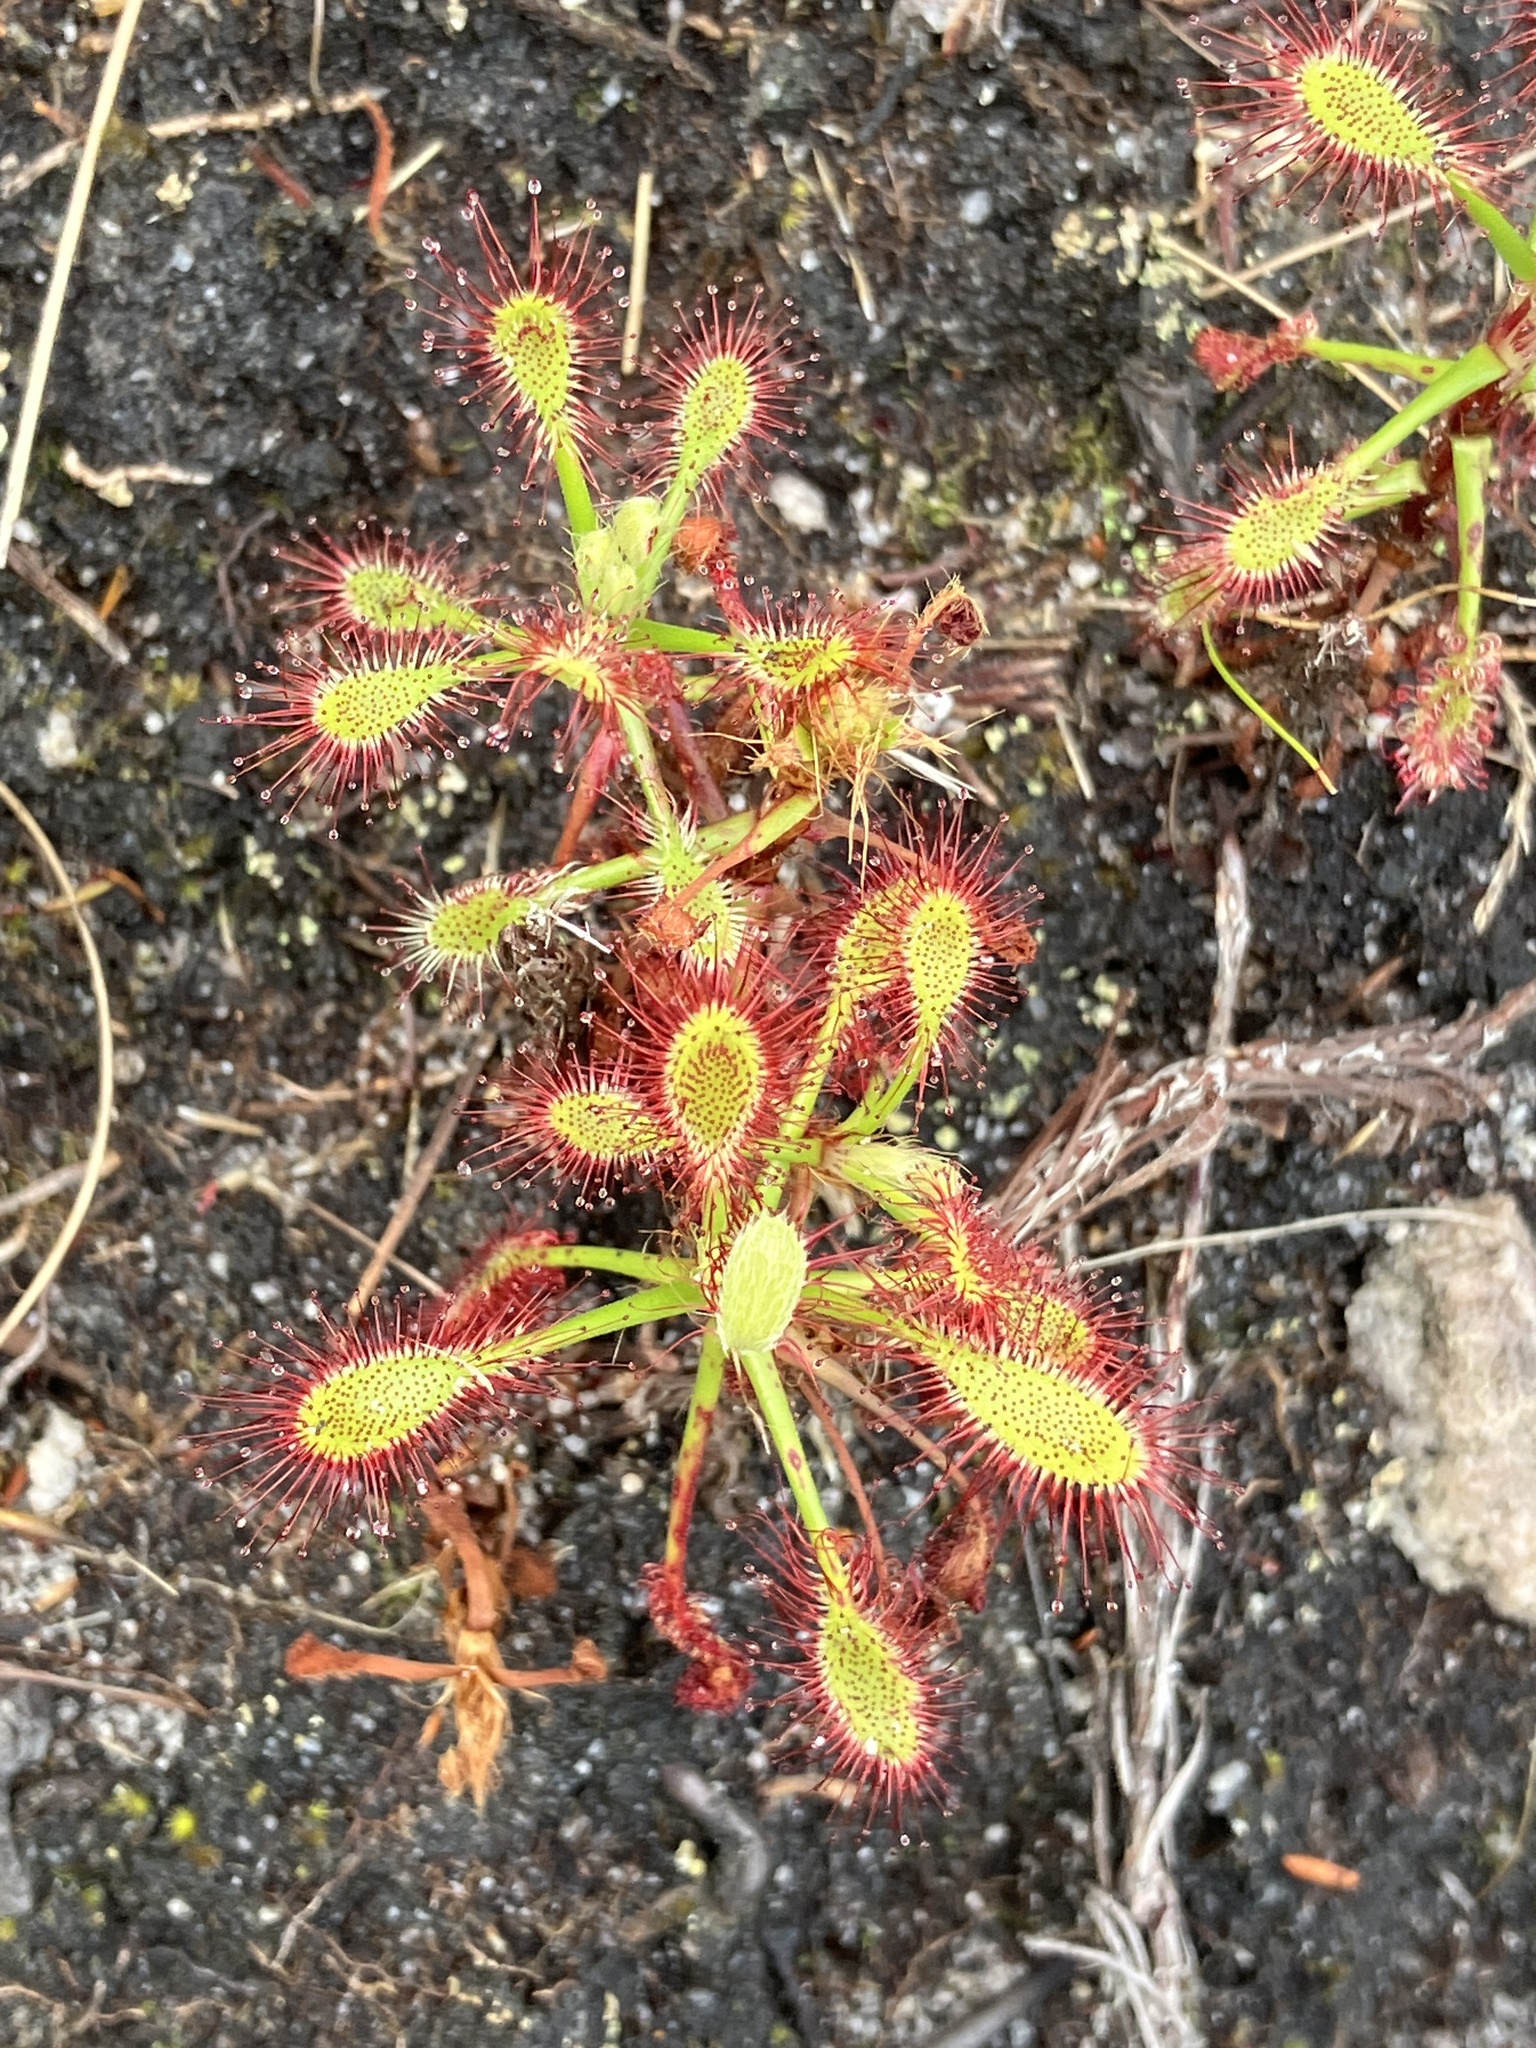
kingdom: Plantae
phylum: Tracheophyta
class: Magnoliopsida
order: Caryophyllales
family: Droseraceae
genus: Drosera
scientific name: Drosera glabripes
